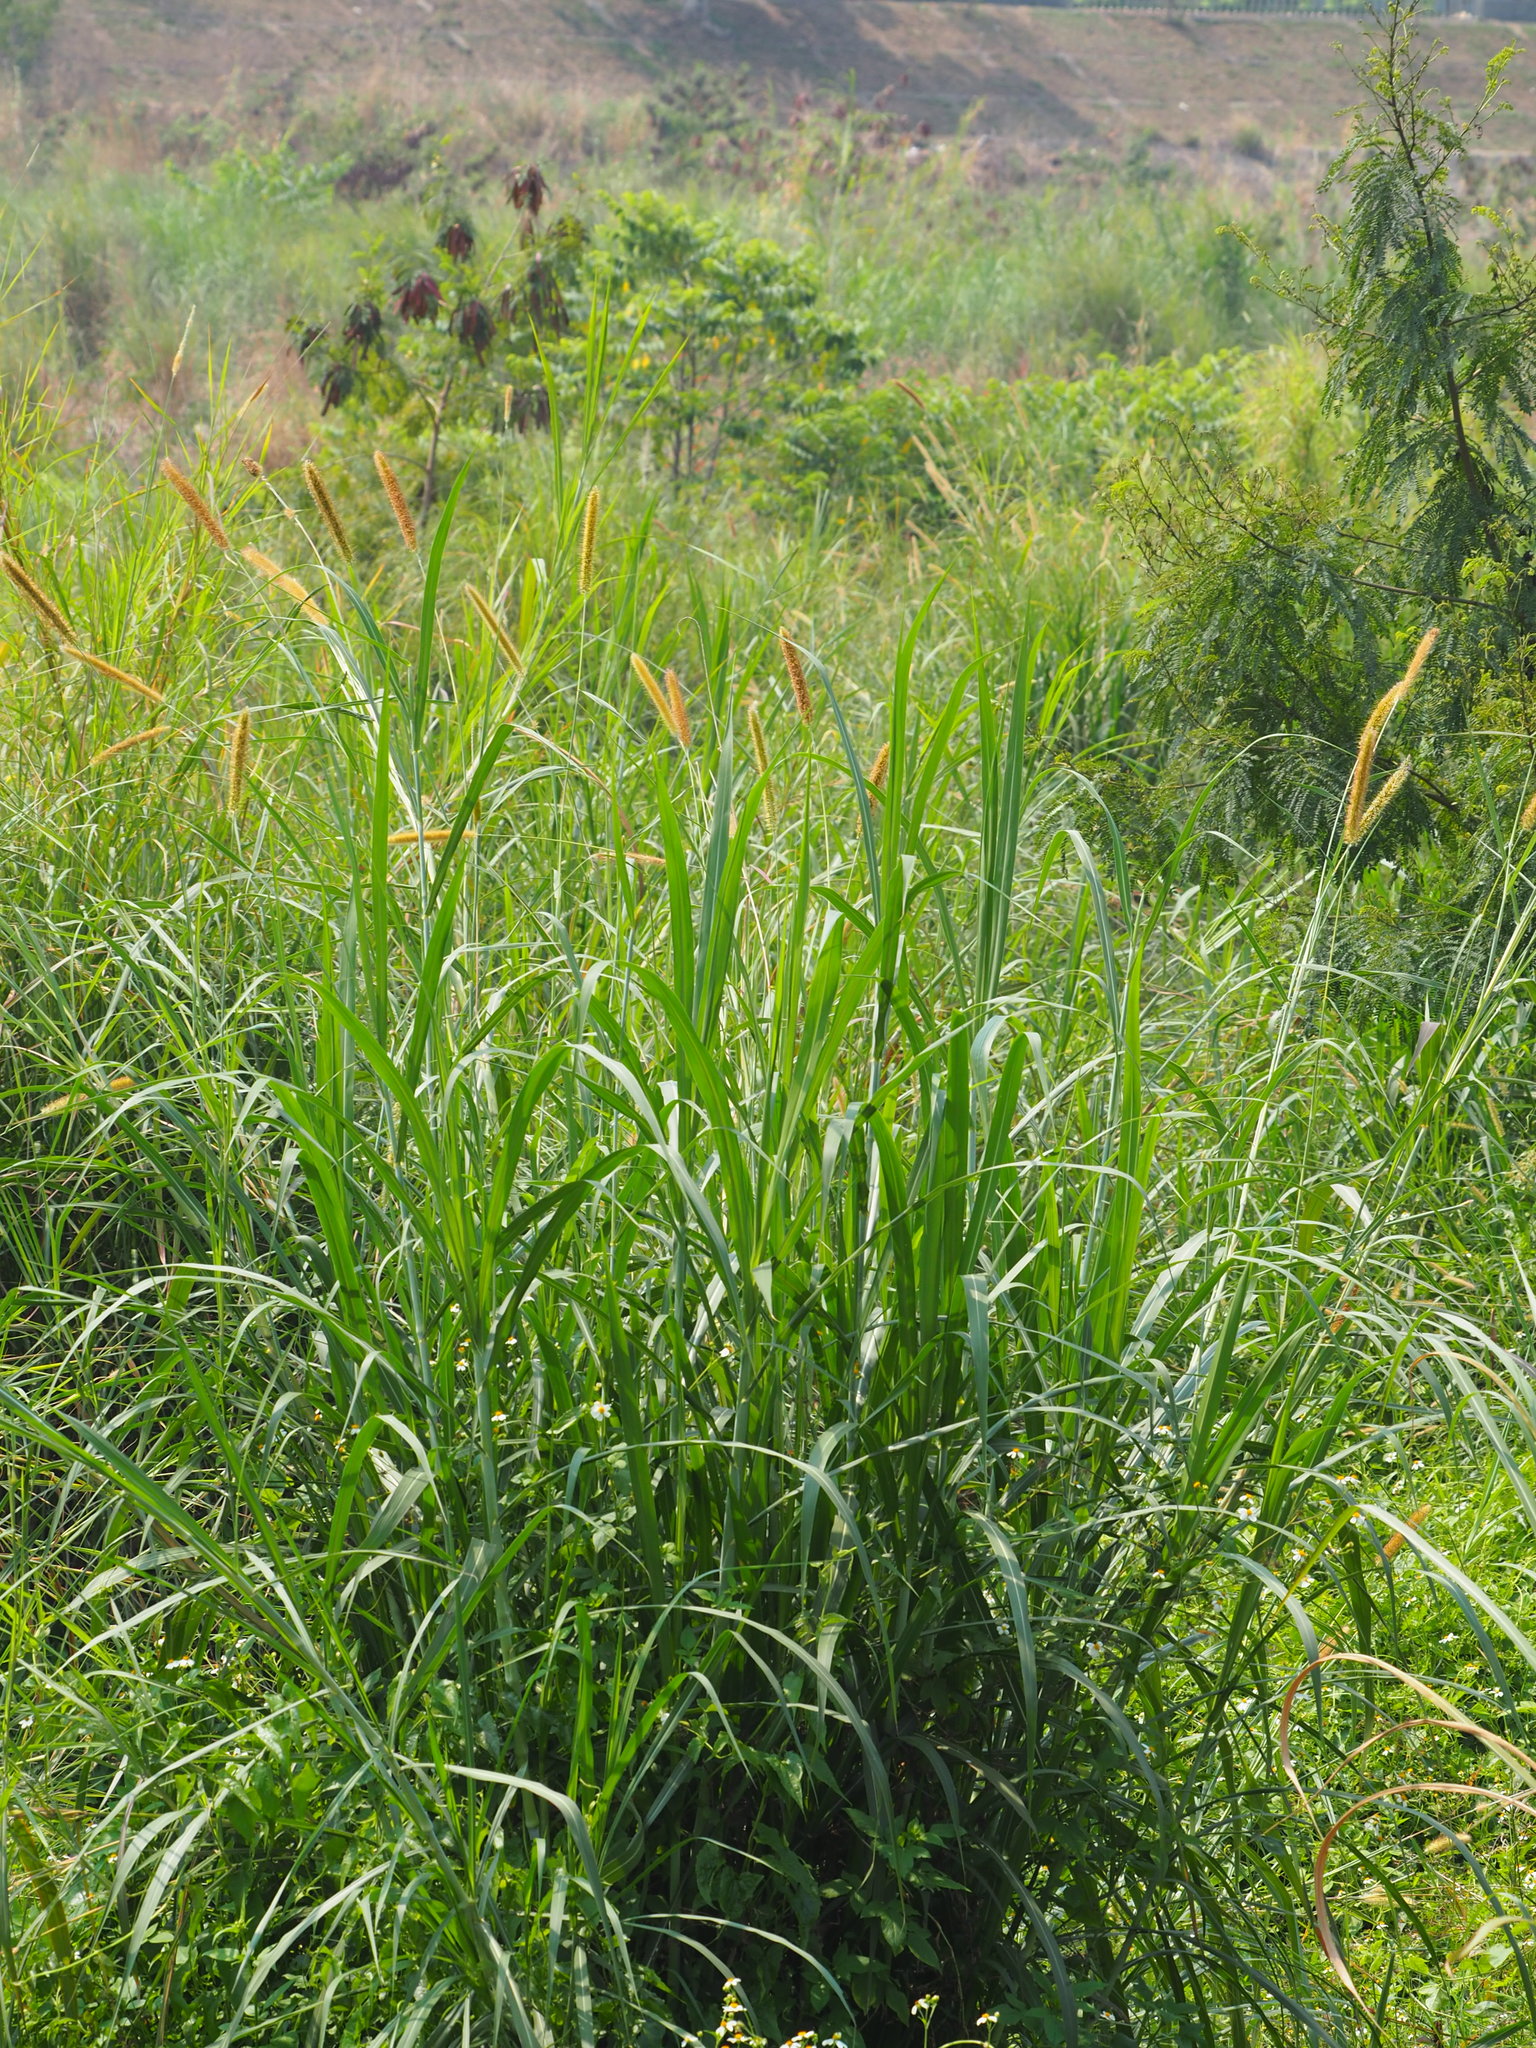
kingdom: Plantae
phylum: Tracheophyta
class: Liliopsida
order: Poales
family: Poaceae
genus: Cenchrus
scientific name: Cenchrus purpureus
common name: Elephant grass
